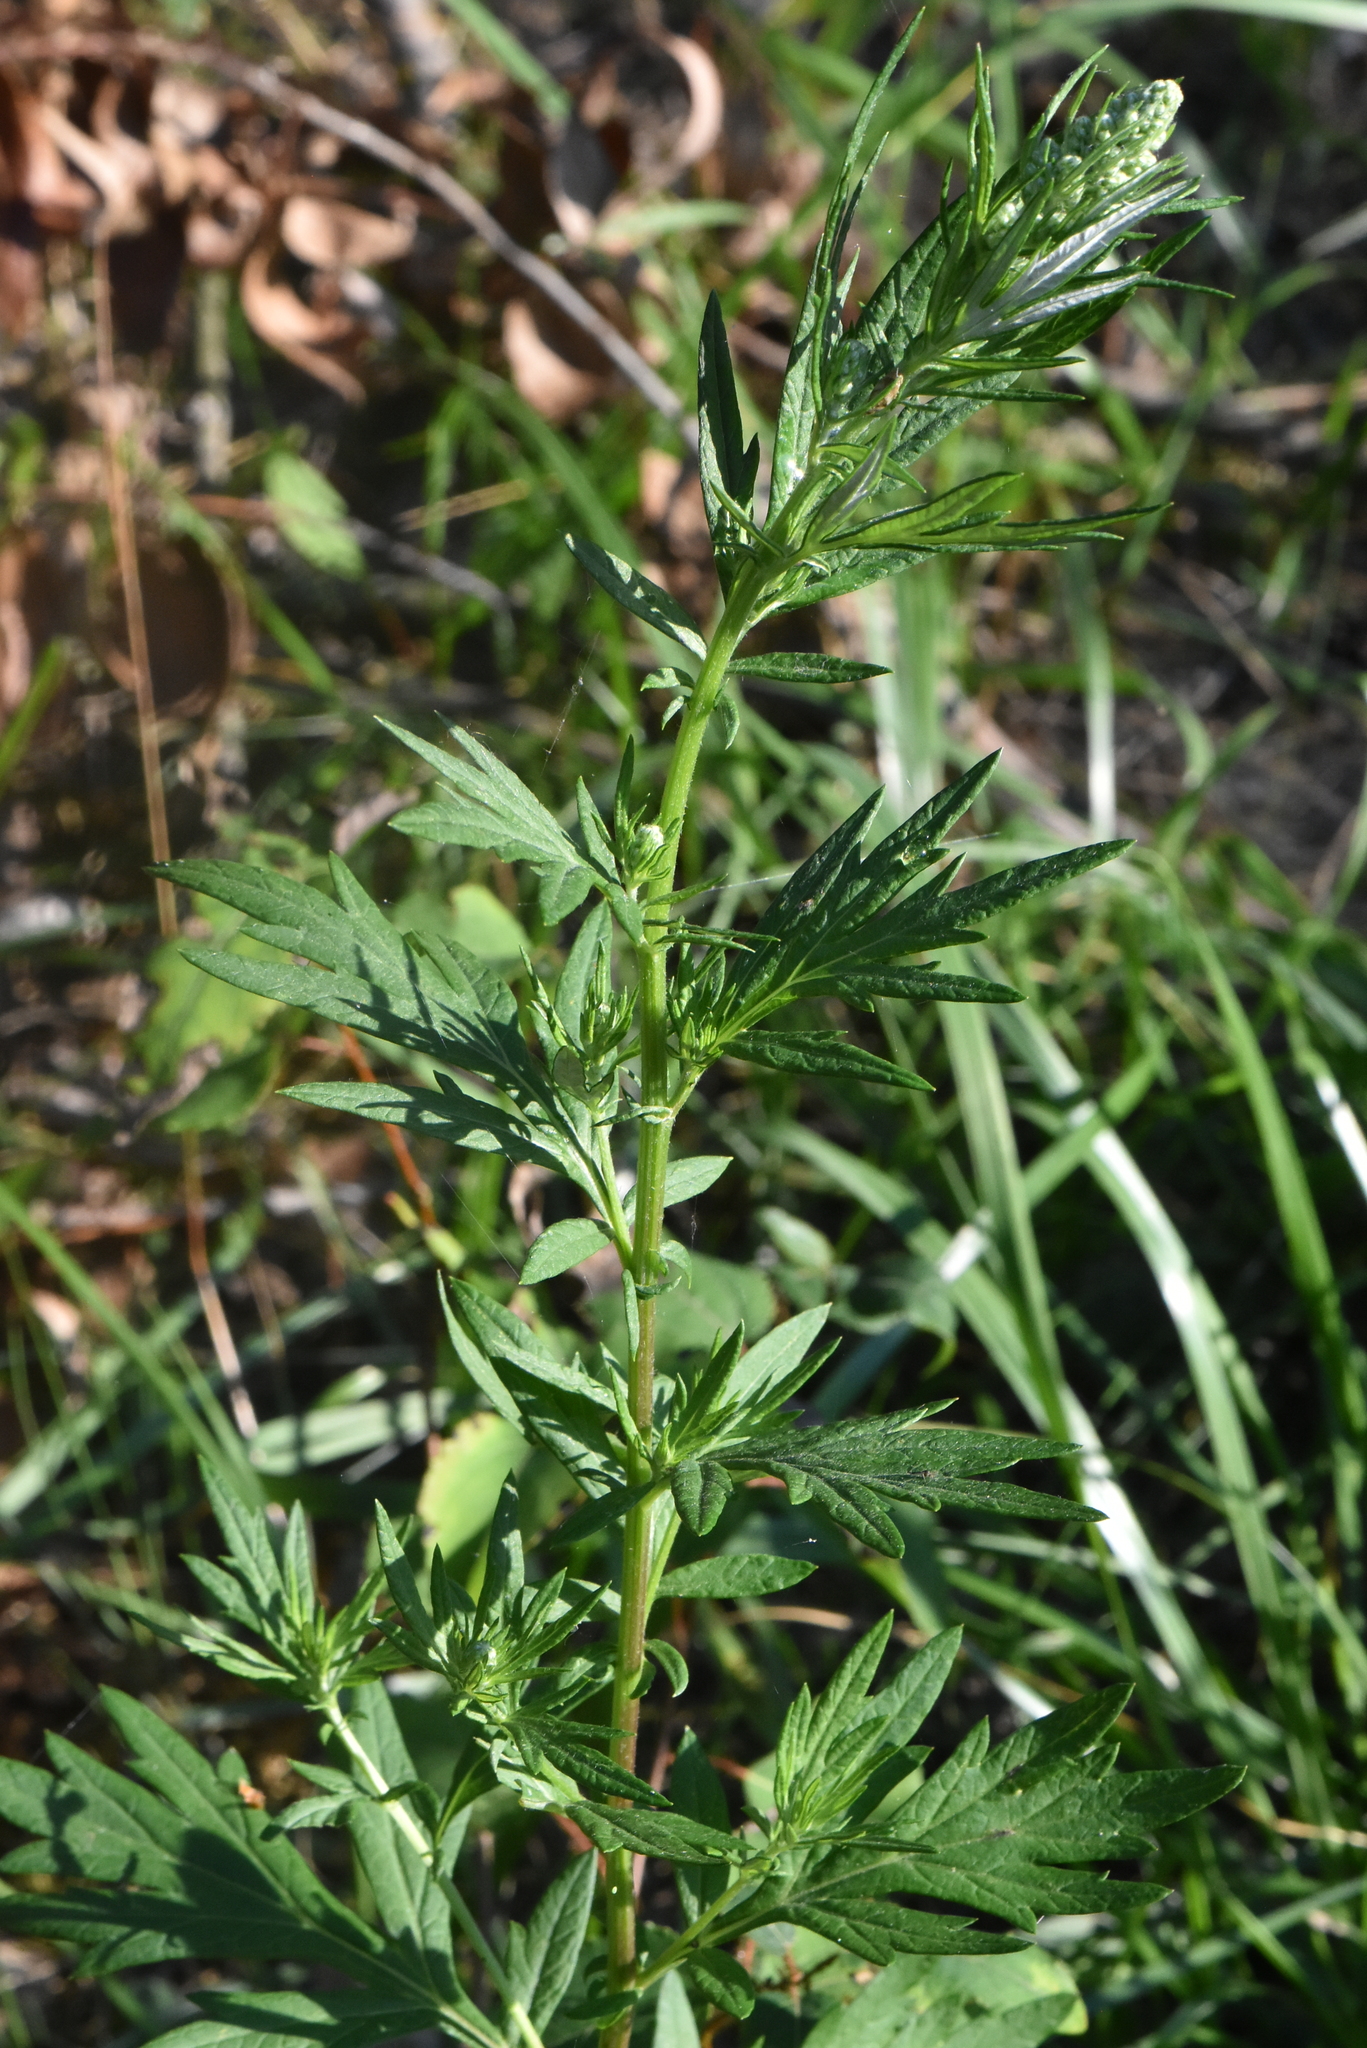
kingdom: Plantae
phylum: Tracheophyta
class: Magnoliopsida
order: Asterales
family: Asteraceae
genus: Artemisia
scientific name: Artemisia vulgaris
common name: Mugwort
